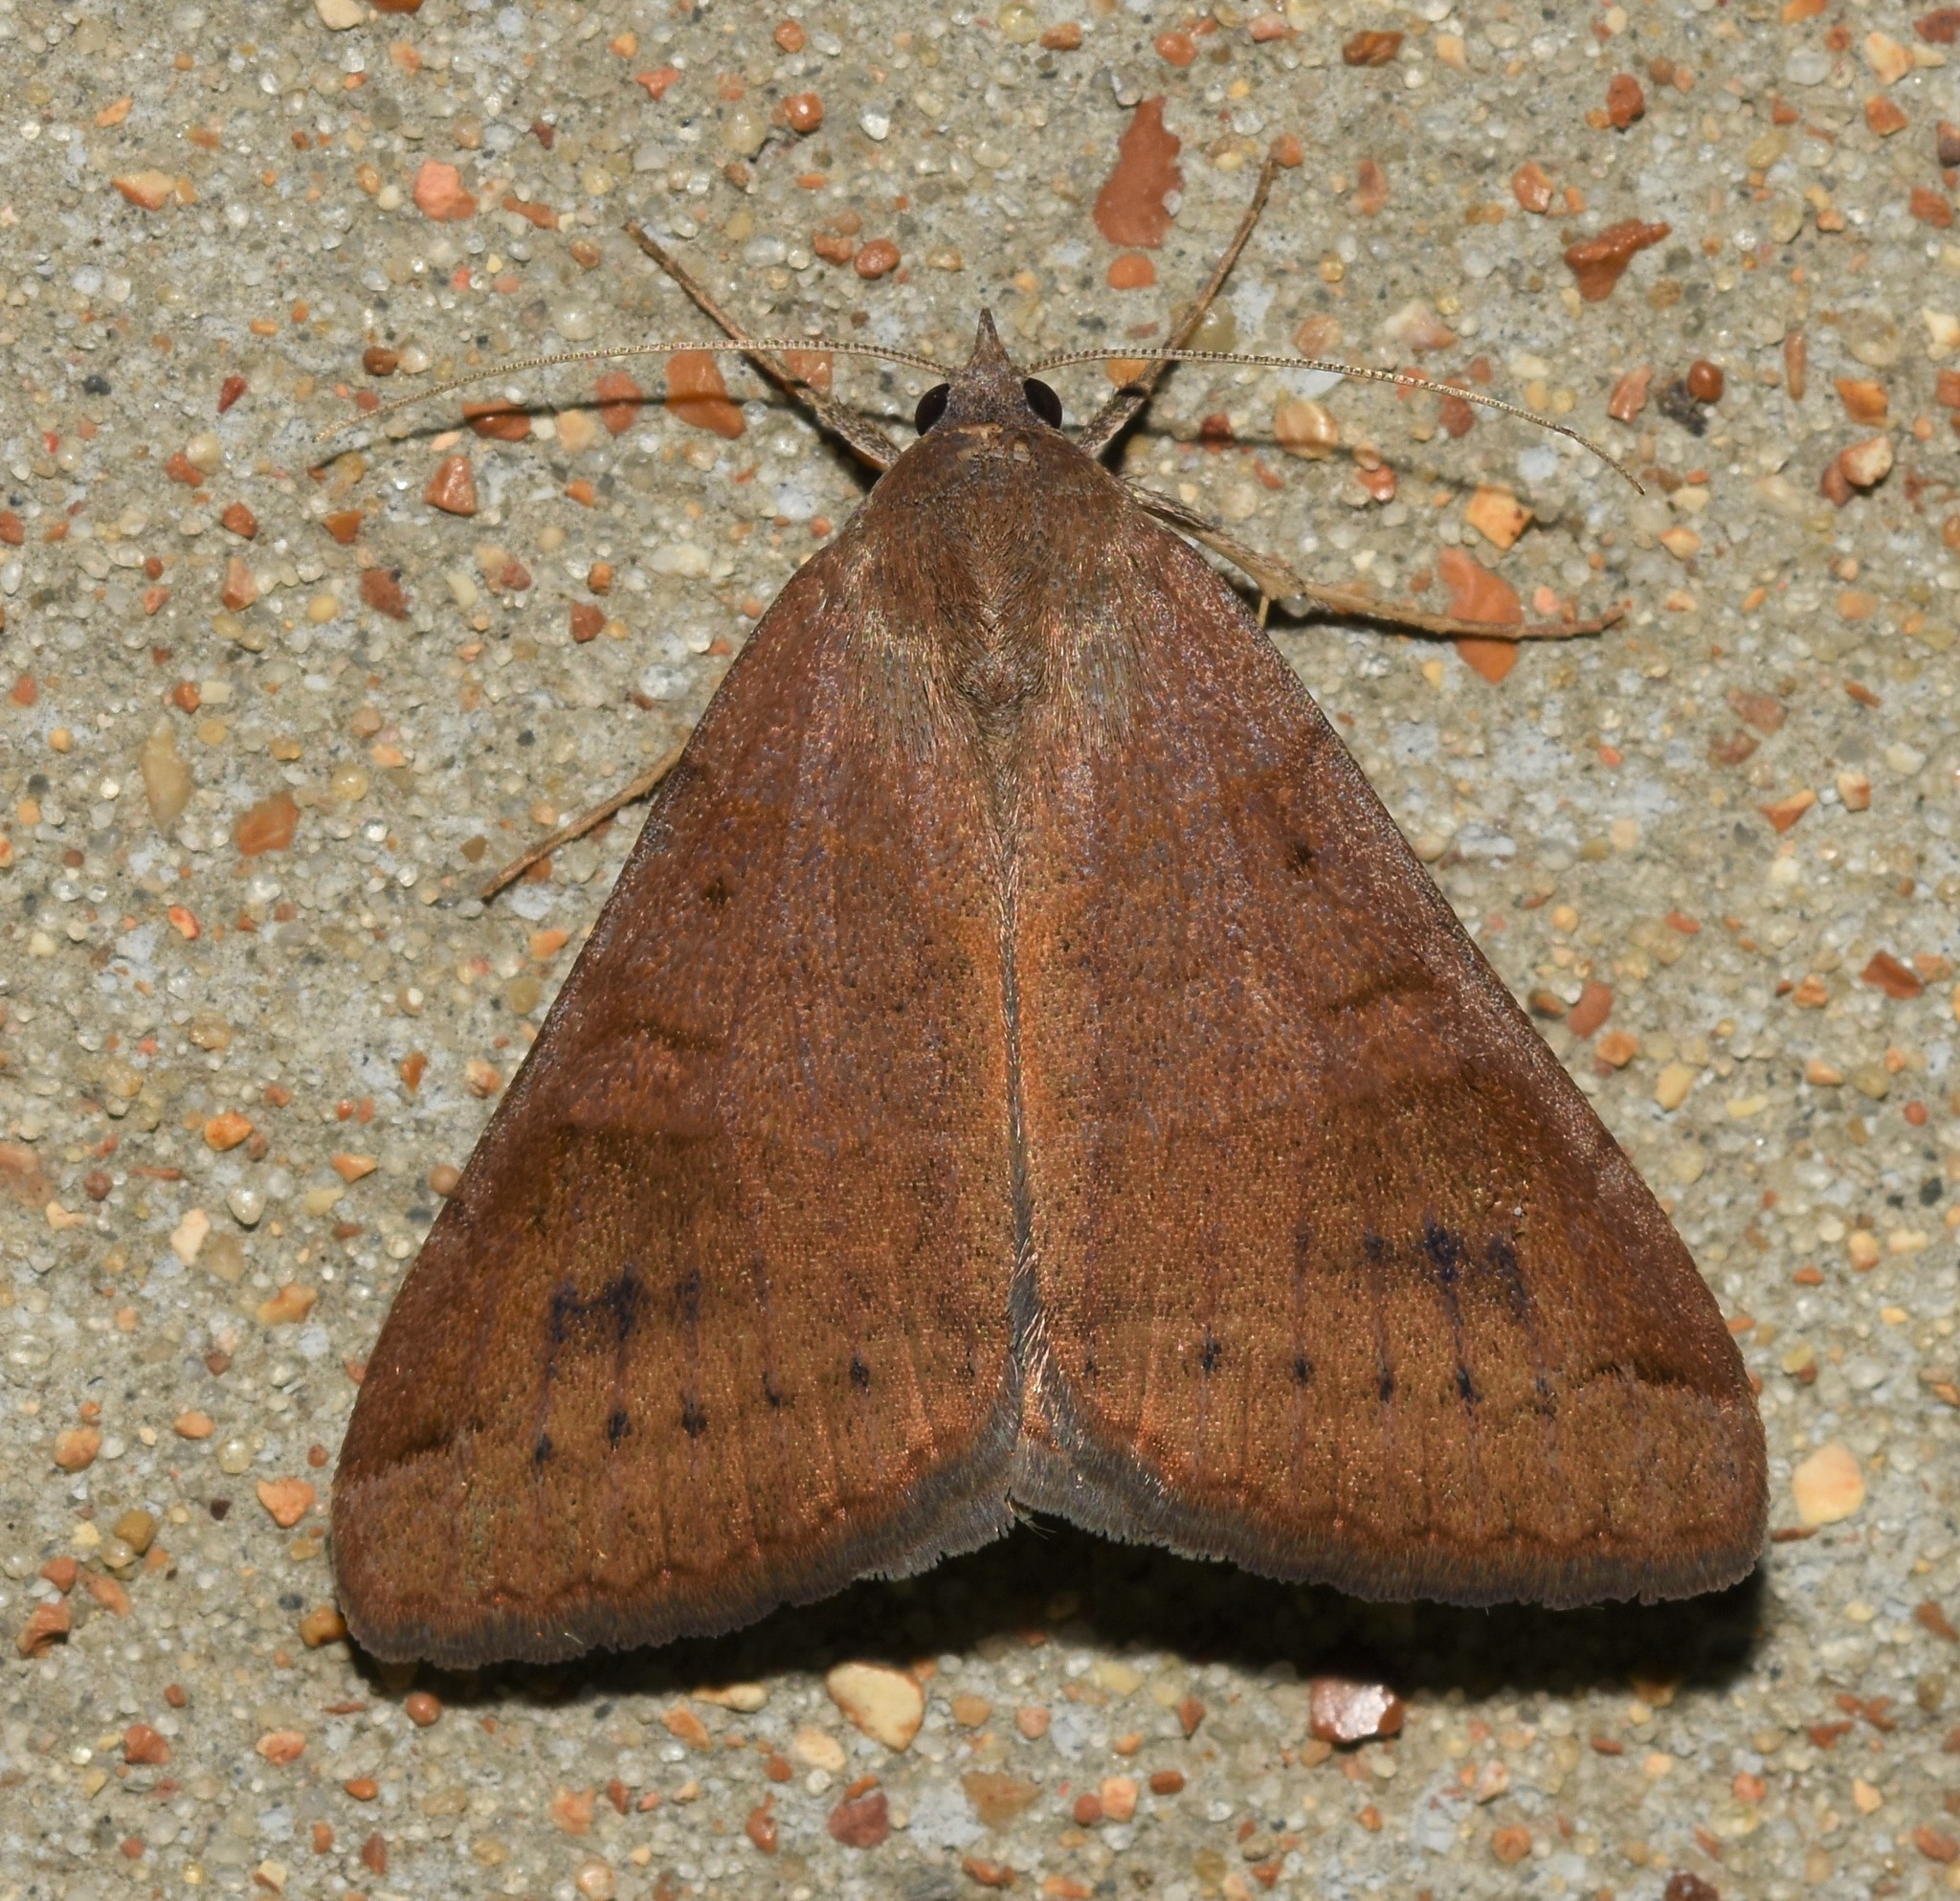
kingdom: Animalia
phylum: Arthropoda
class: Insecta
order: Lepidoptera
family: Erebidae
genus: Caenurgina
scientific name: Caenurgina erechtea
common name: Forage looper moth
